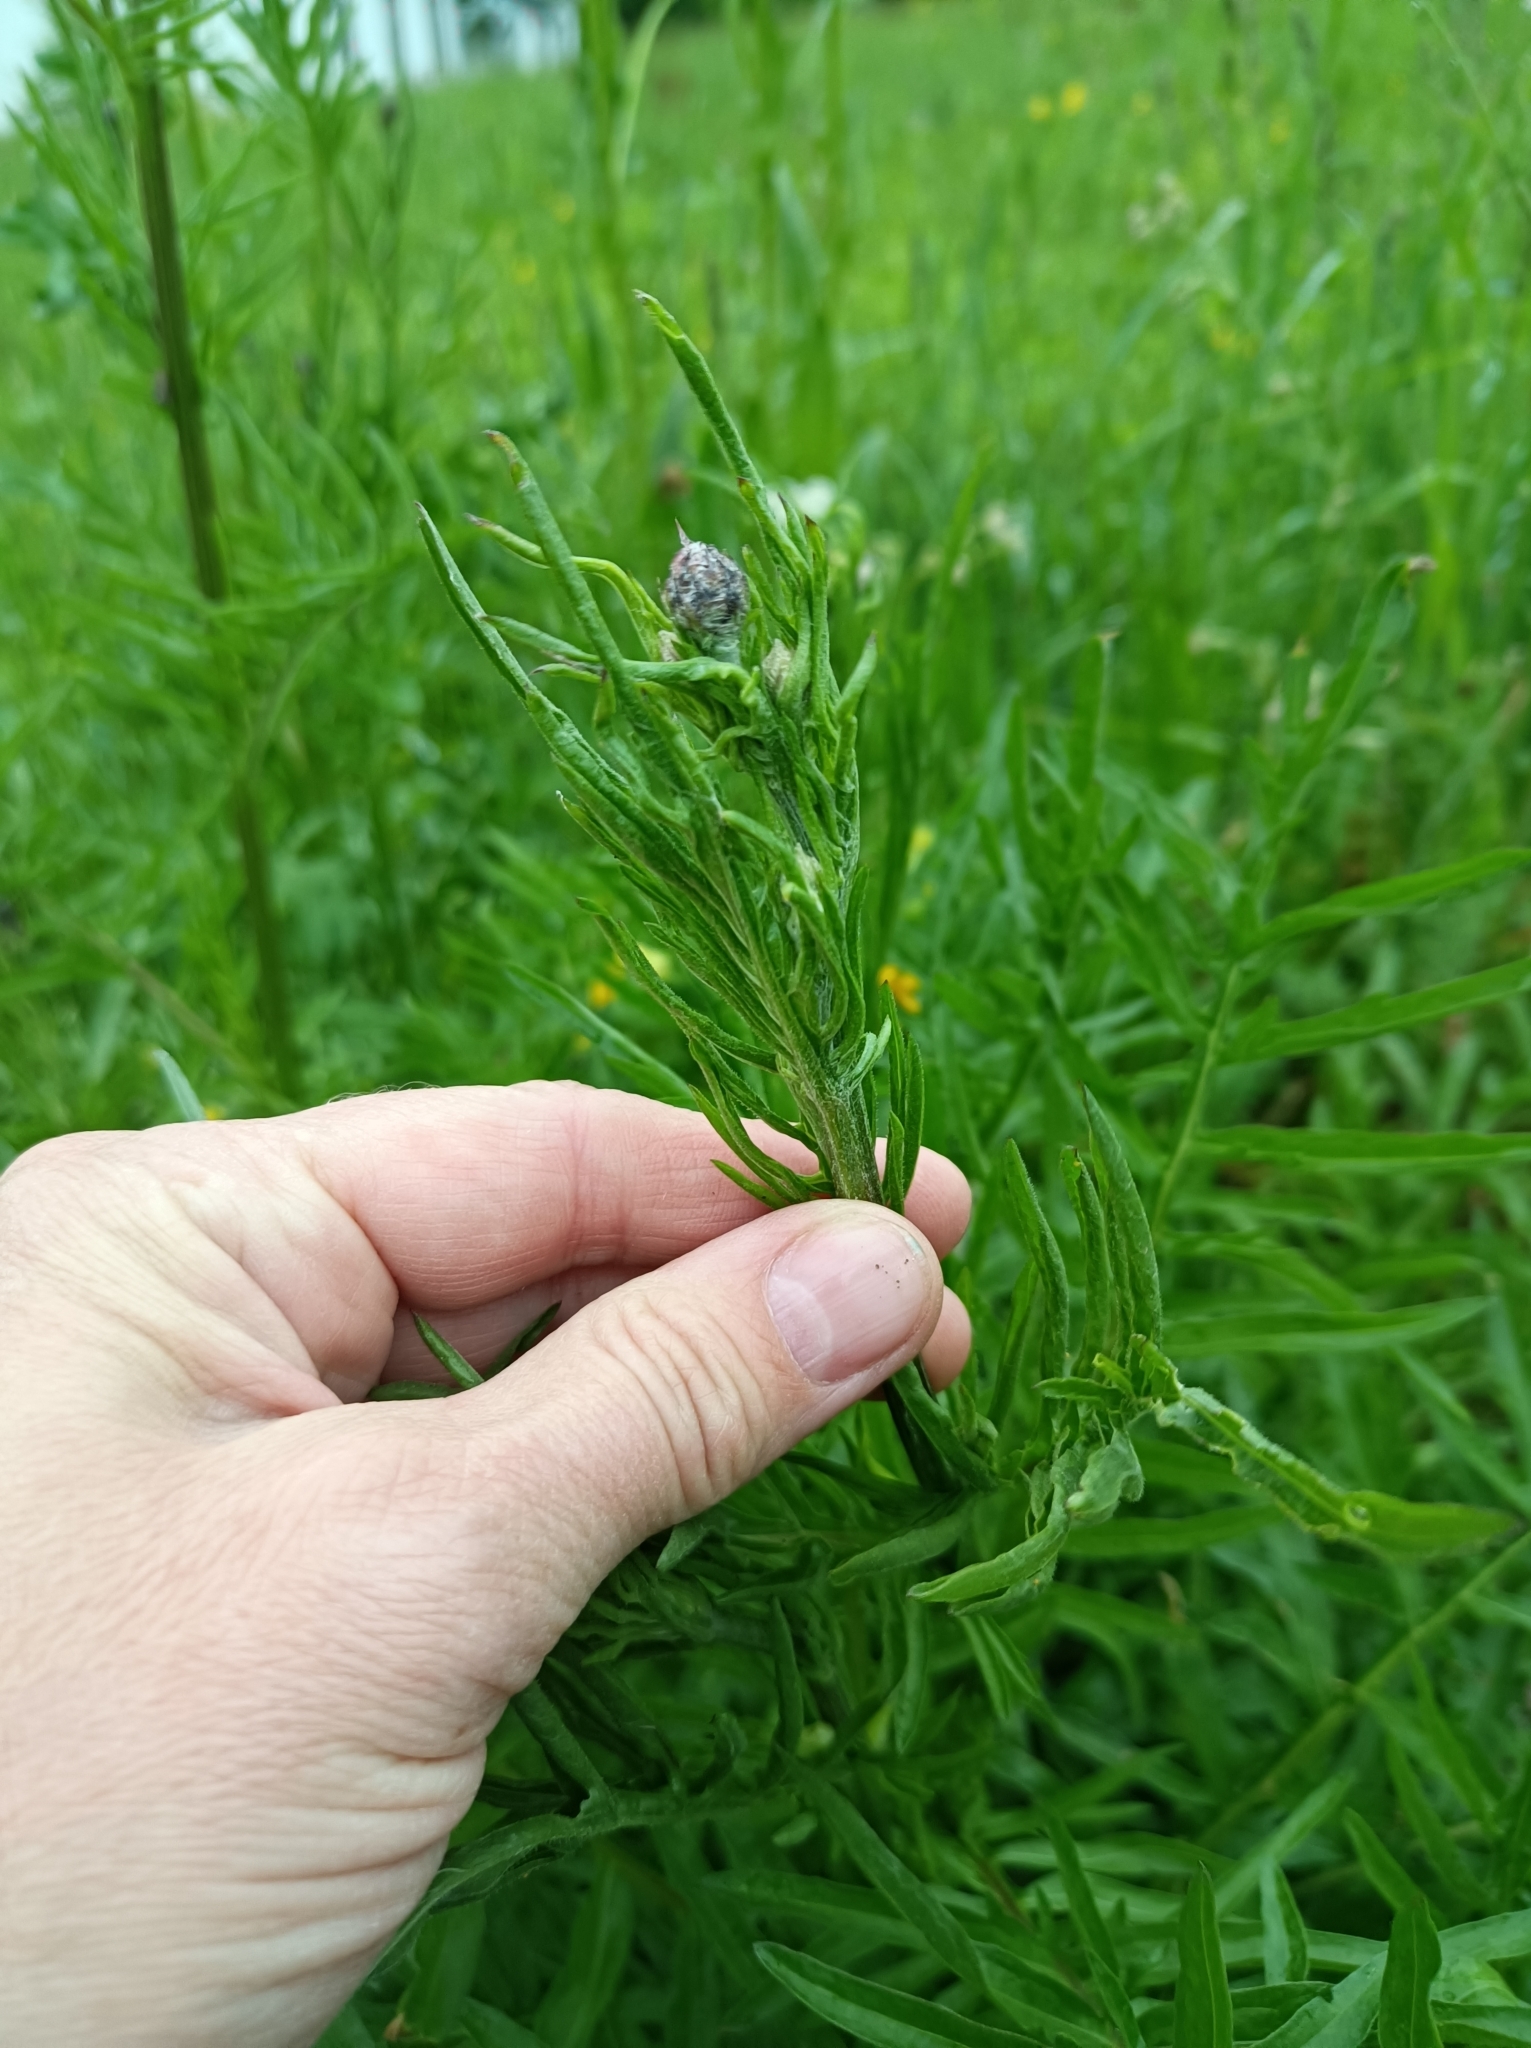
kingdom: Plantae
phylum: Tracheophyta
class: Magnoliopsida
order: Asterales
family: Asteraceae
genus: Centaurea
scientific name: Centaurea scabiosa
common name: Greater knapweed
